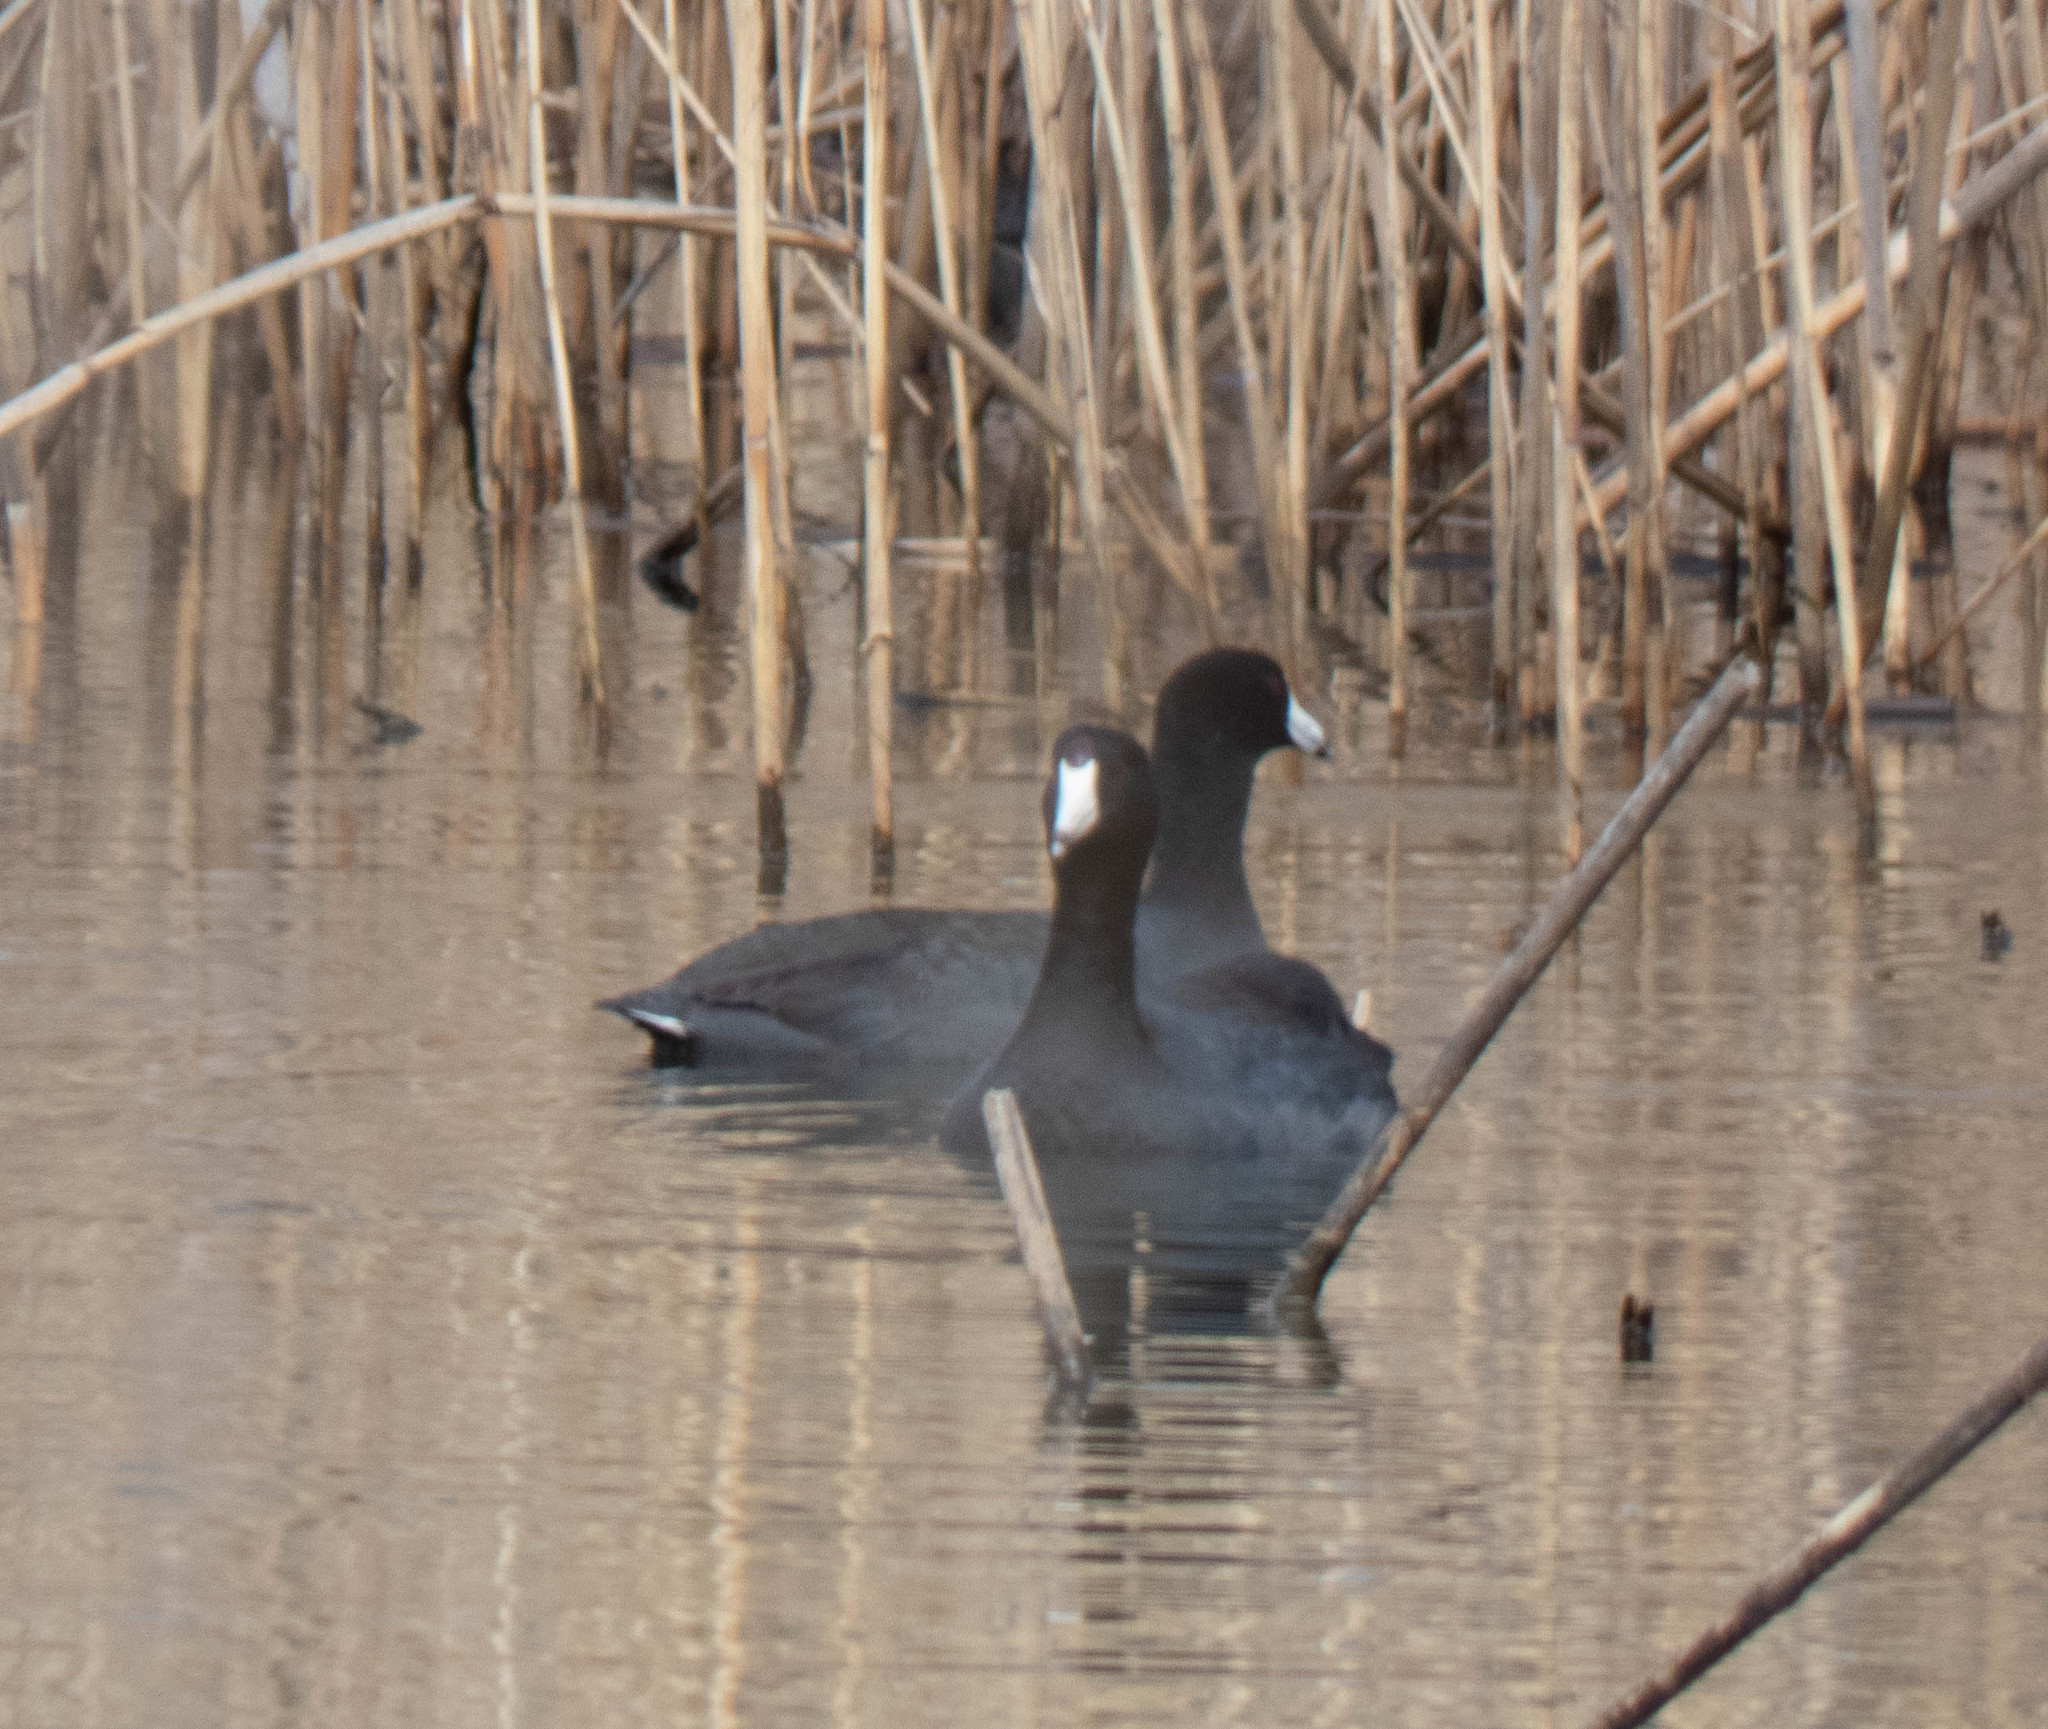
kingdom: Animalia
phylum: Chordata
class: Aves
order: Gruiformes
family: Rallidae
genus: Fulica
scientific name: Fulica americana
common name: American coot
